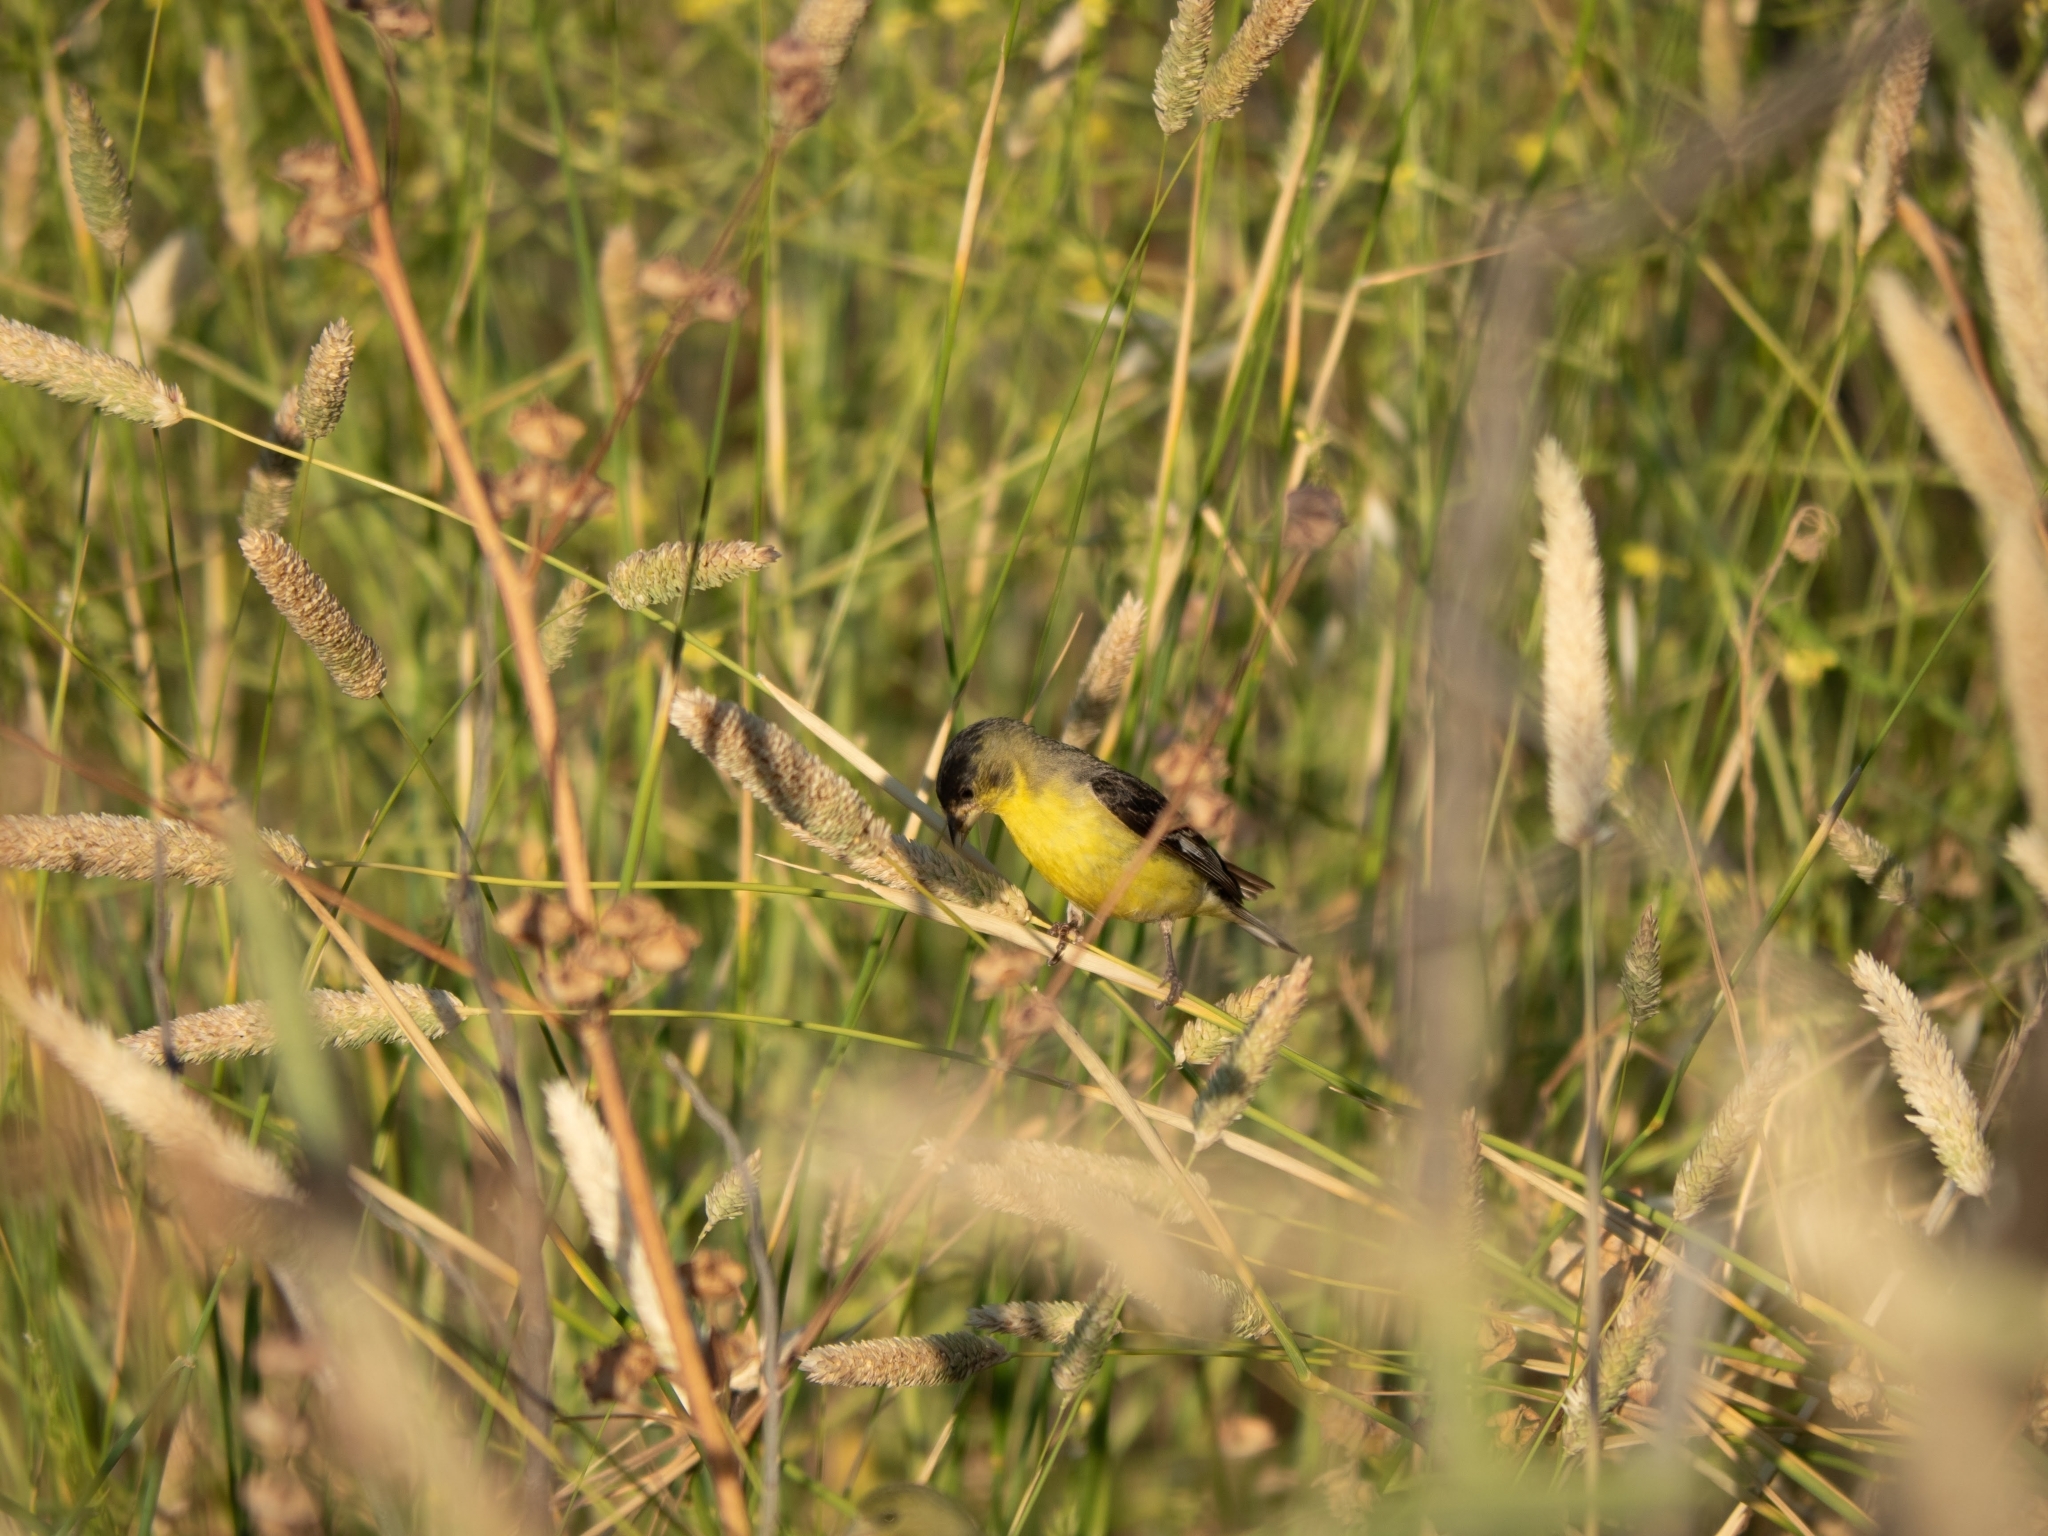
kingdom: Animalia
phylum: Chordata
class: Aves
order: Passeriformes
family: Fringillidae
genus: Spinus
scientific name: Spinus psaltria
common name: Lesser goldfinch
